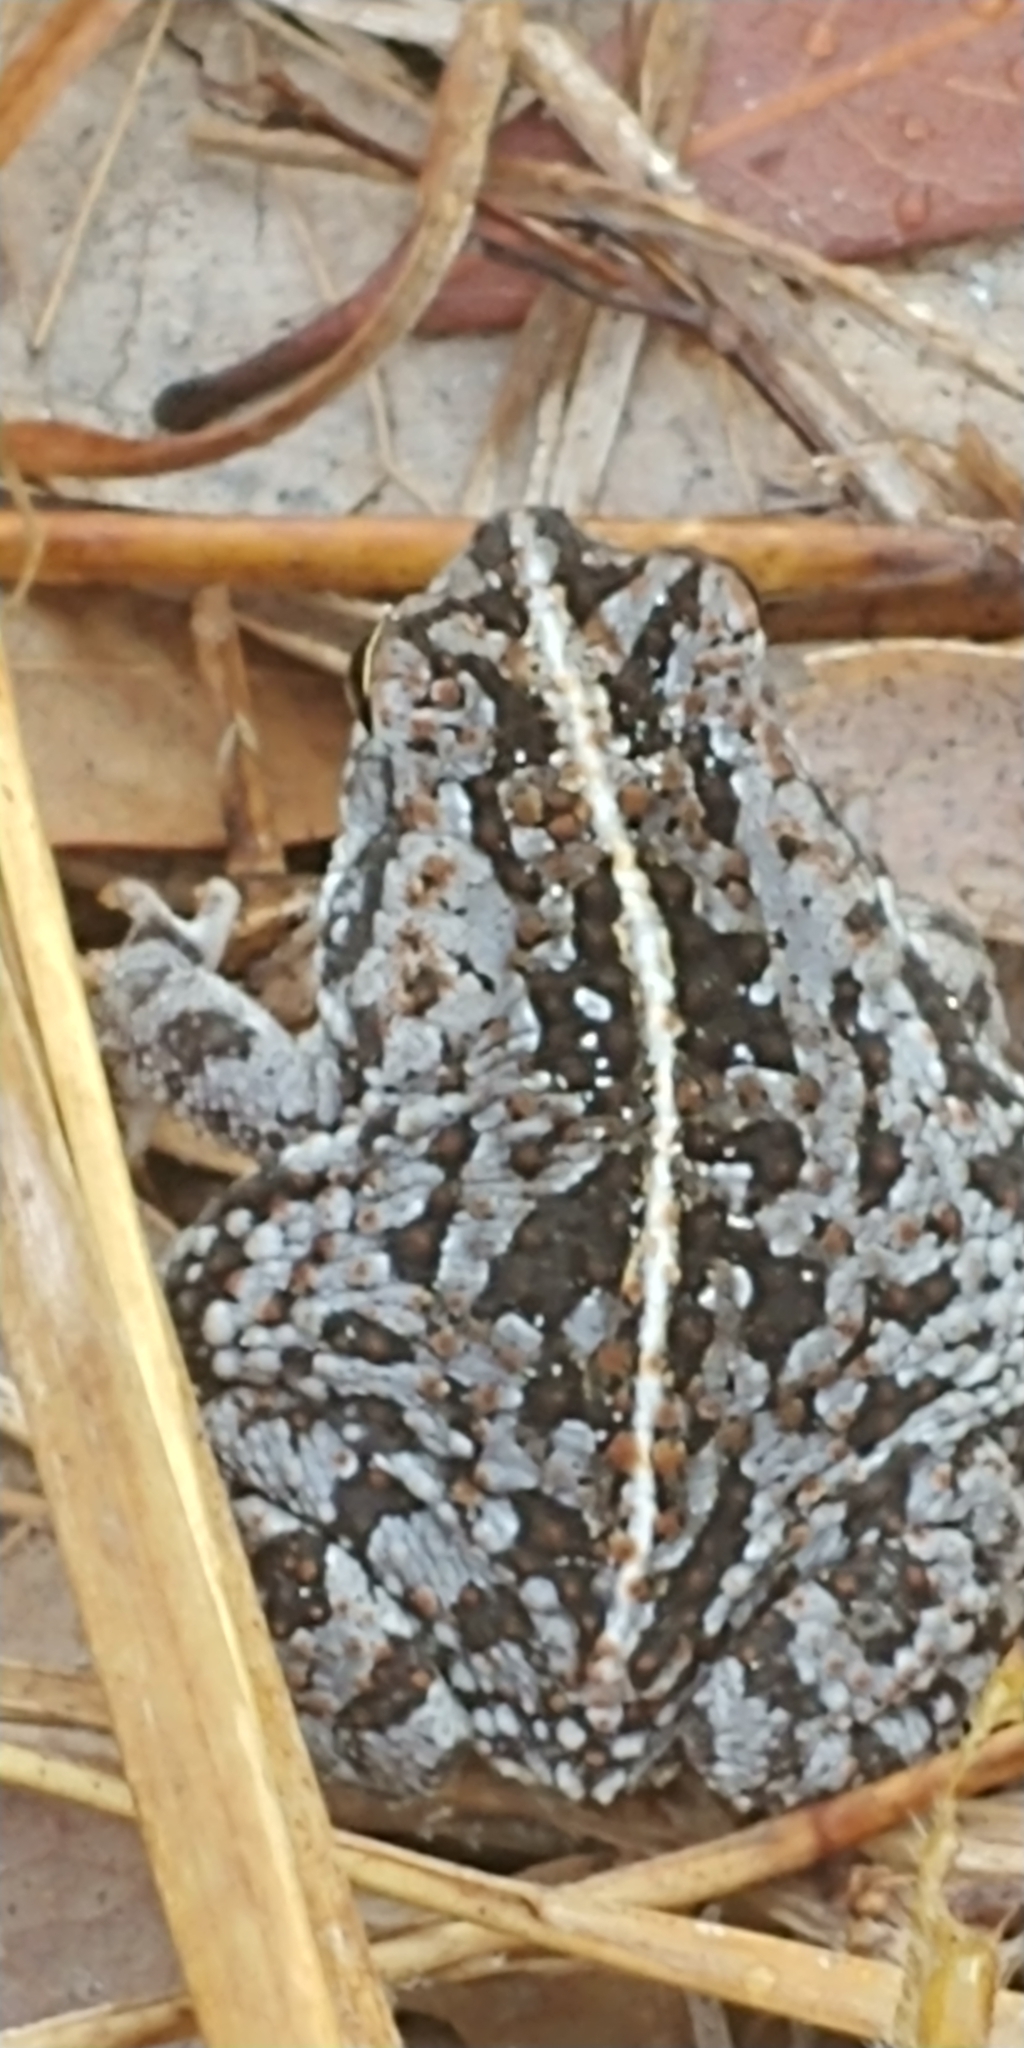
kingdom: Animalia
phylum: Chordata
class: Amphibia
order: Anura
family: Bufonidae
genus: Anaxyrus
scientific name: Anaxyrus quercicus
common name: Oak toad
